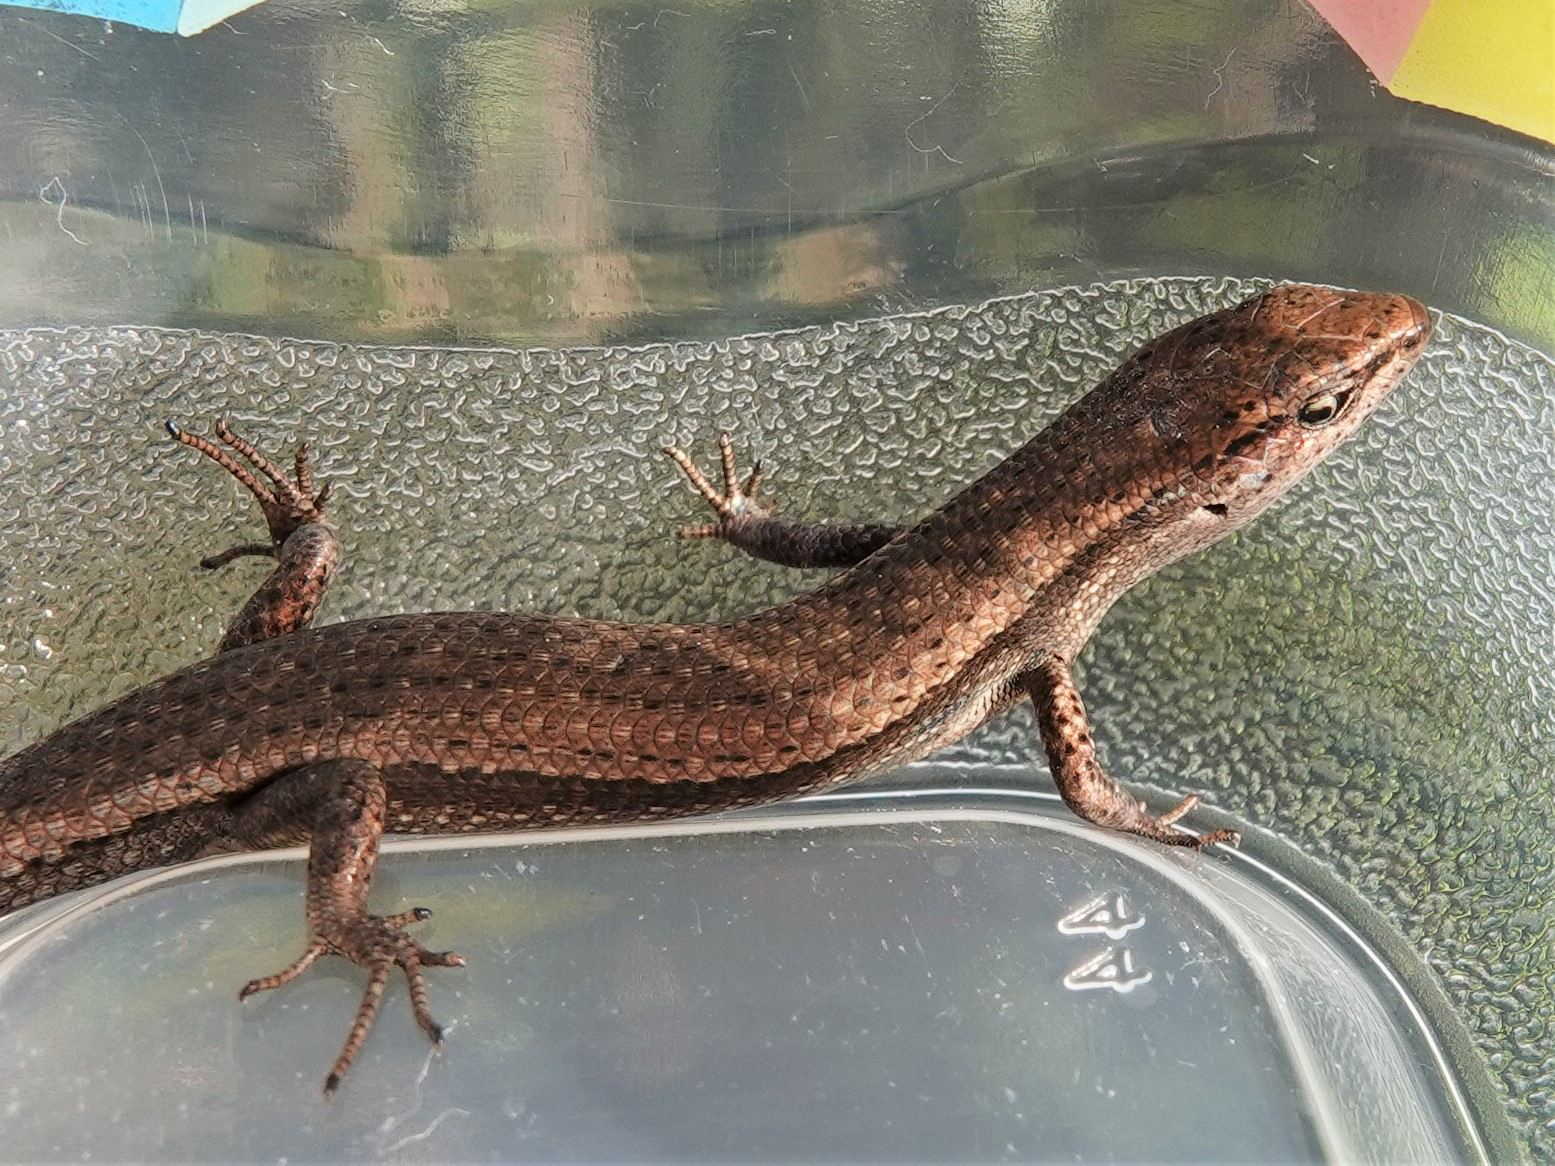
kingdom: Animalia
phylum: Chordata
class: Squamata
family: Scincidae
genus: Lampropholis
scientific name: Lampropholis delicata
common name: Plague skink
